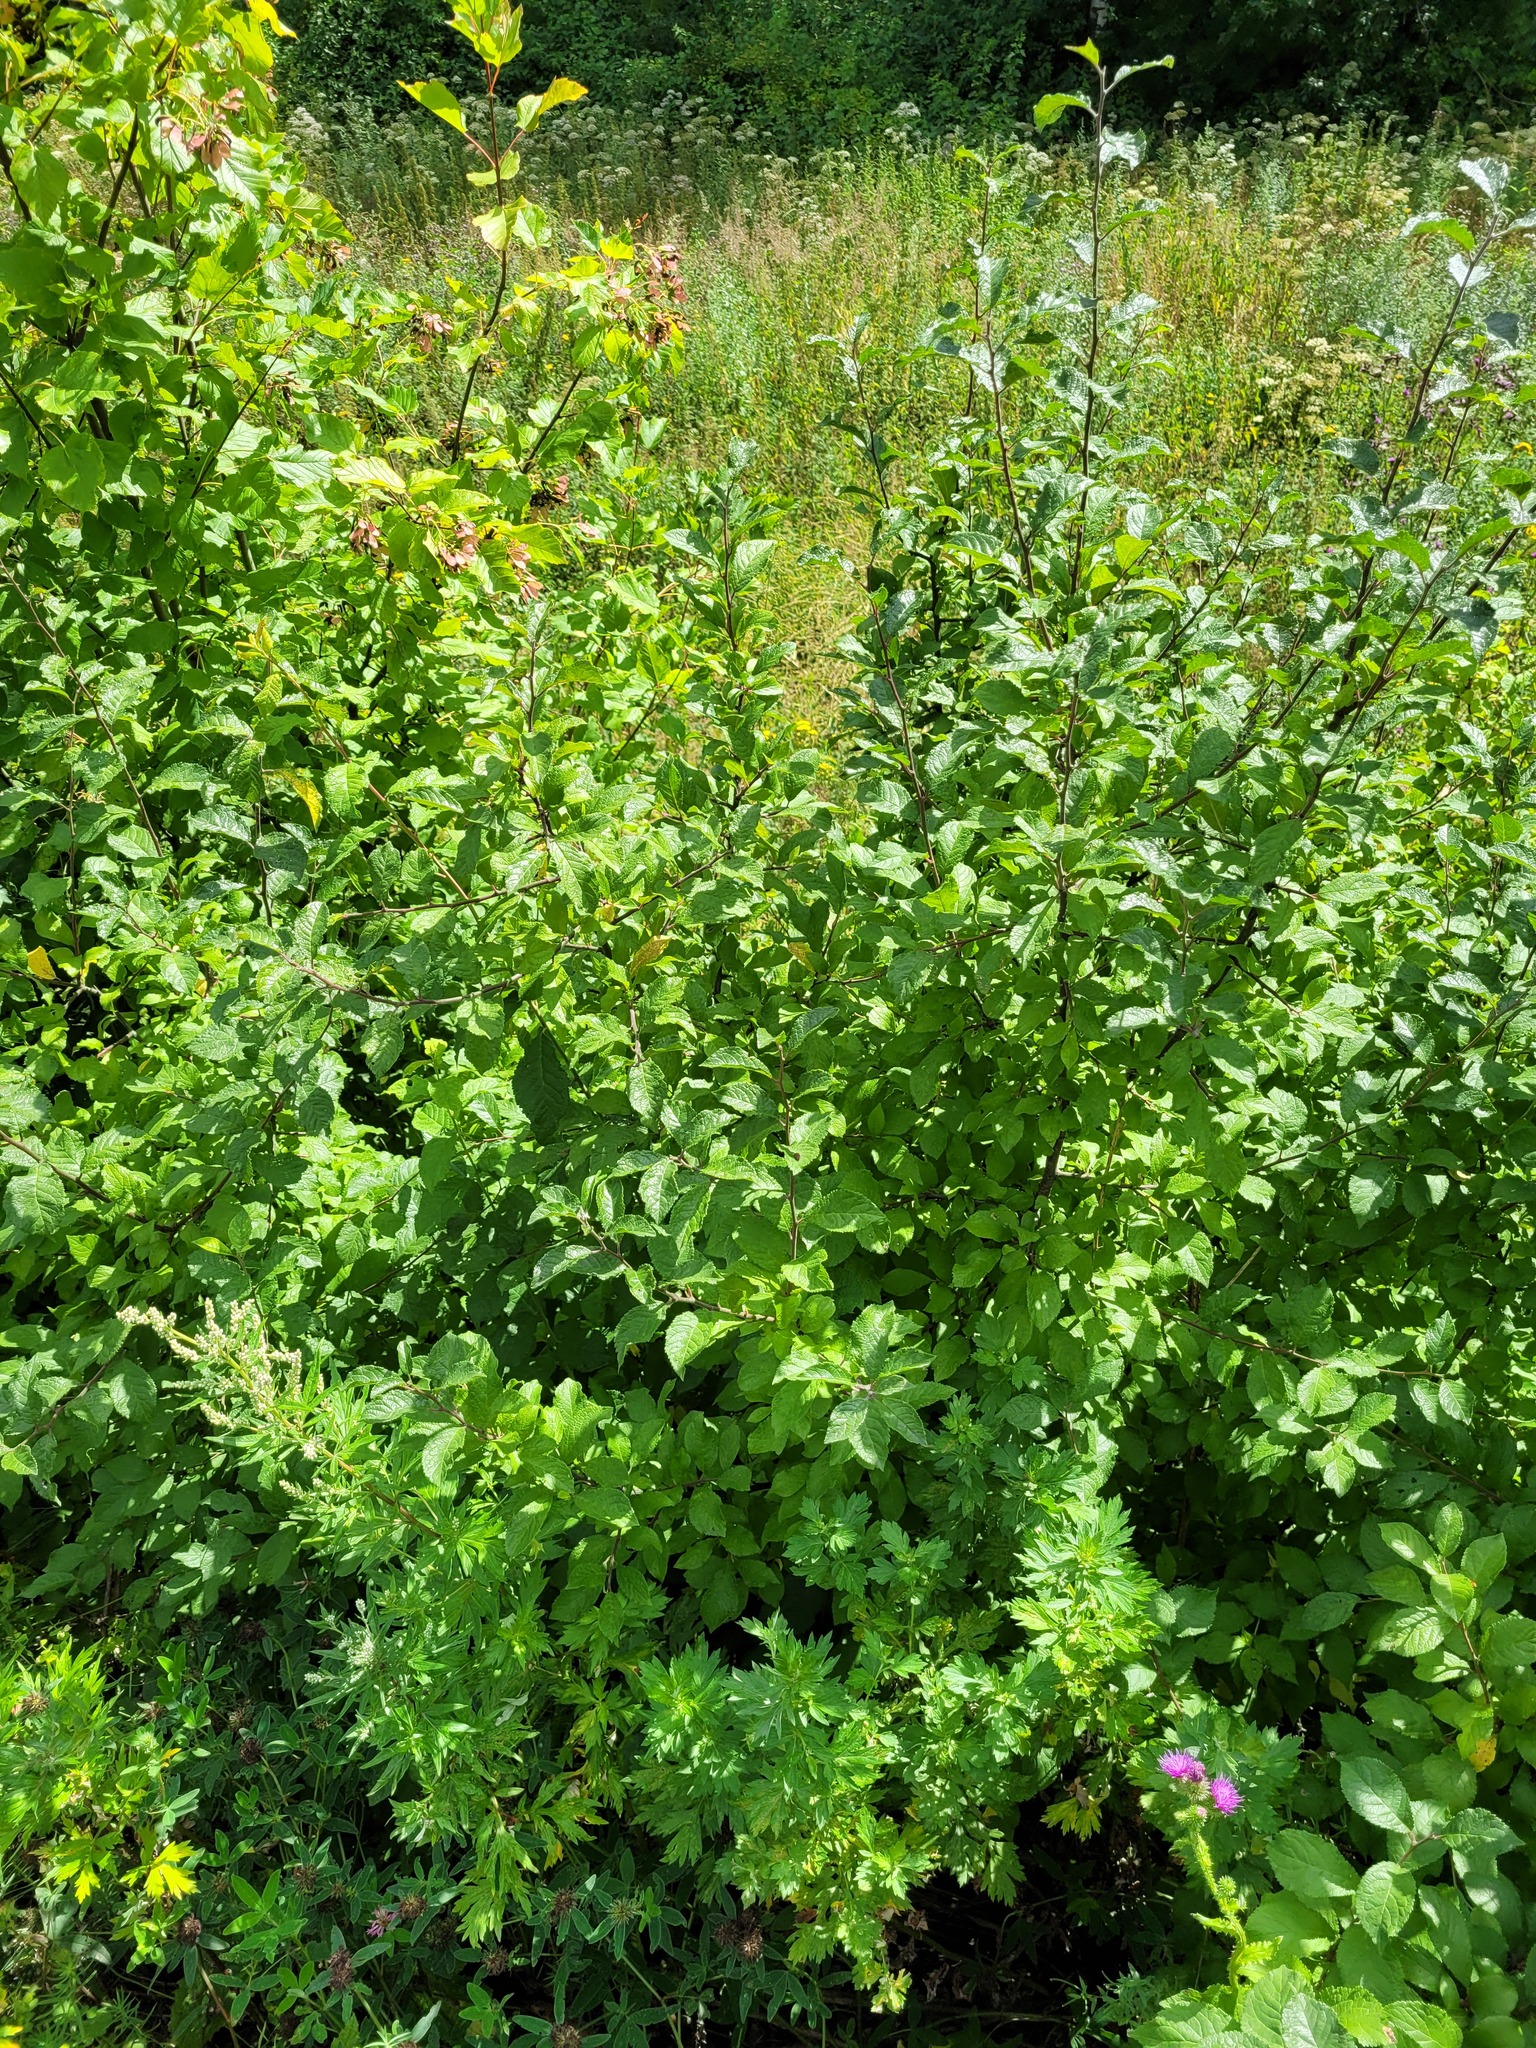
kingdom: Plantae
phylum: Tracheophyta
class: Magnoliopsida
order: Rosales
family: Rosaceae
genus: Prunus
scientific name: Prunus spinosa
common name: Blackthorn
